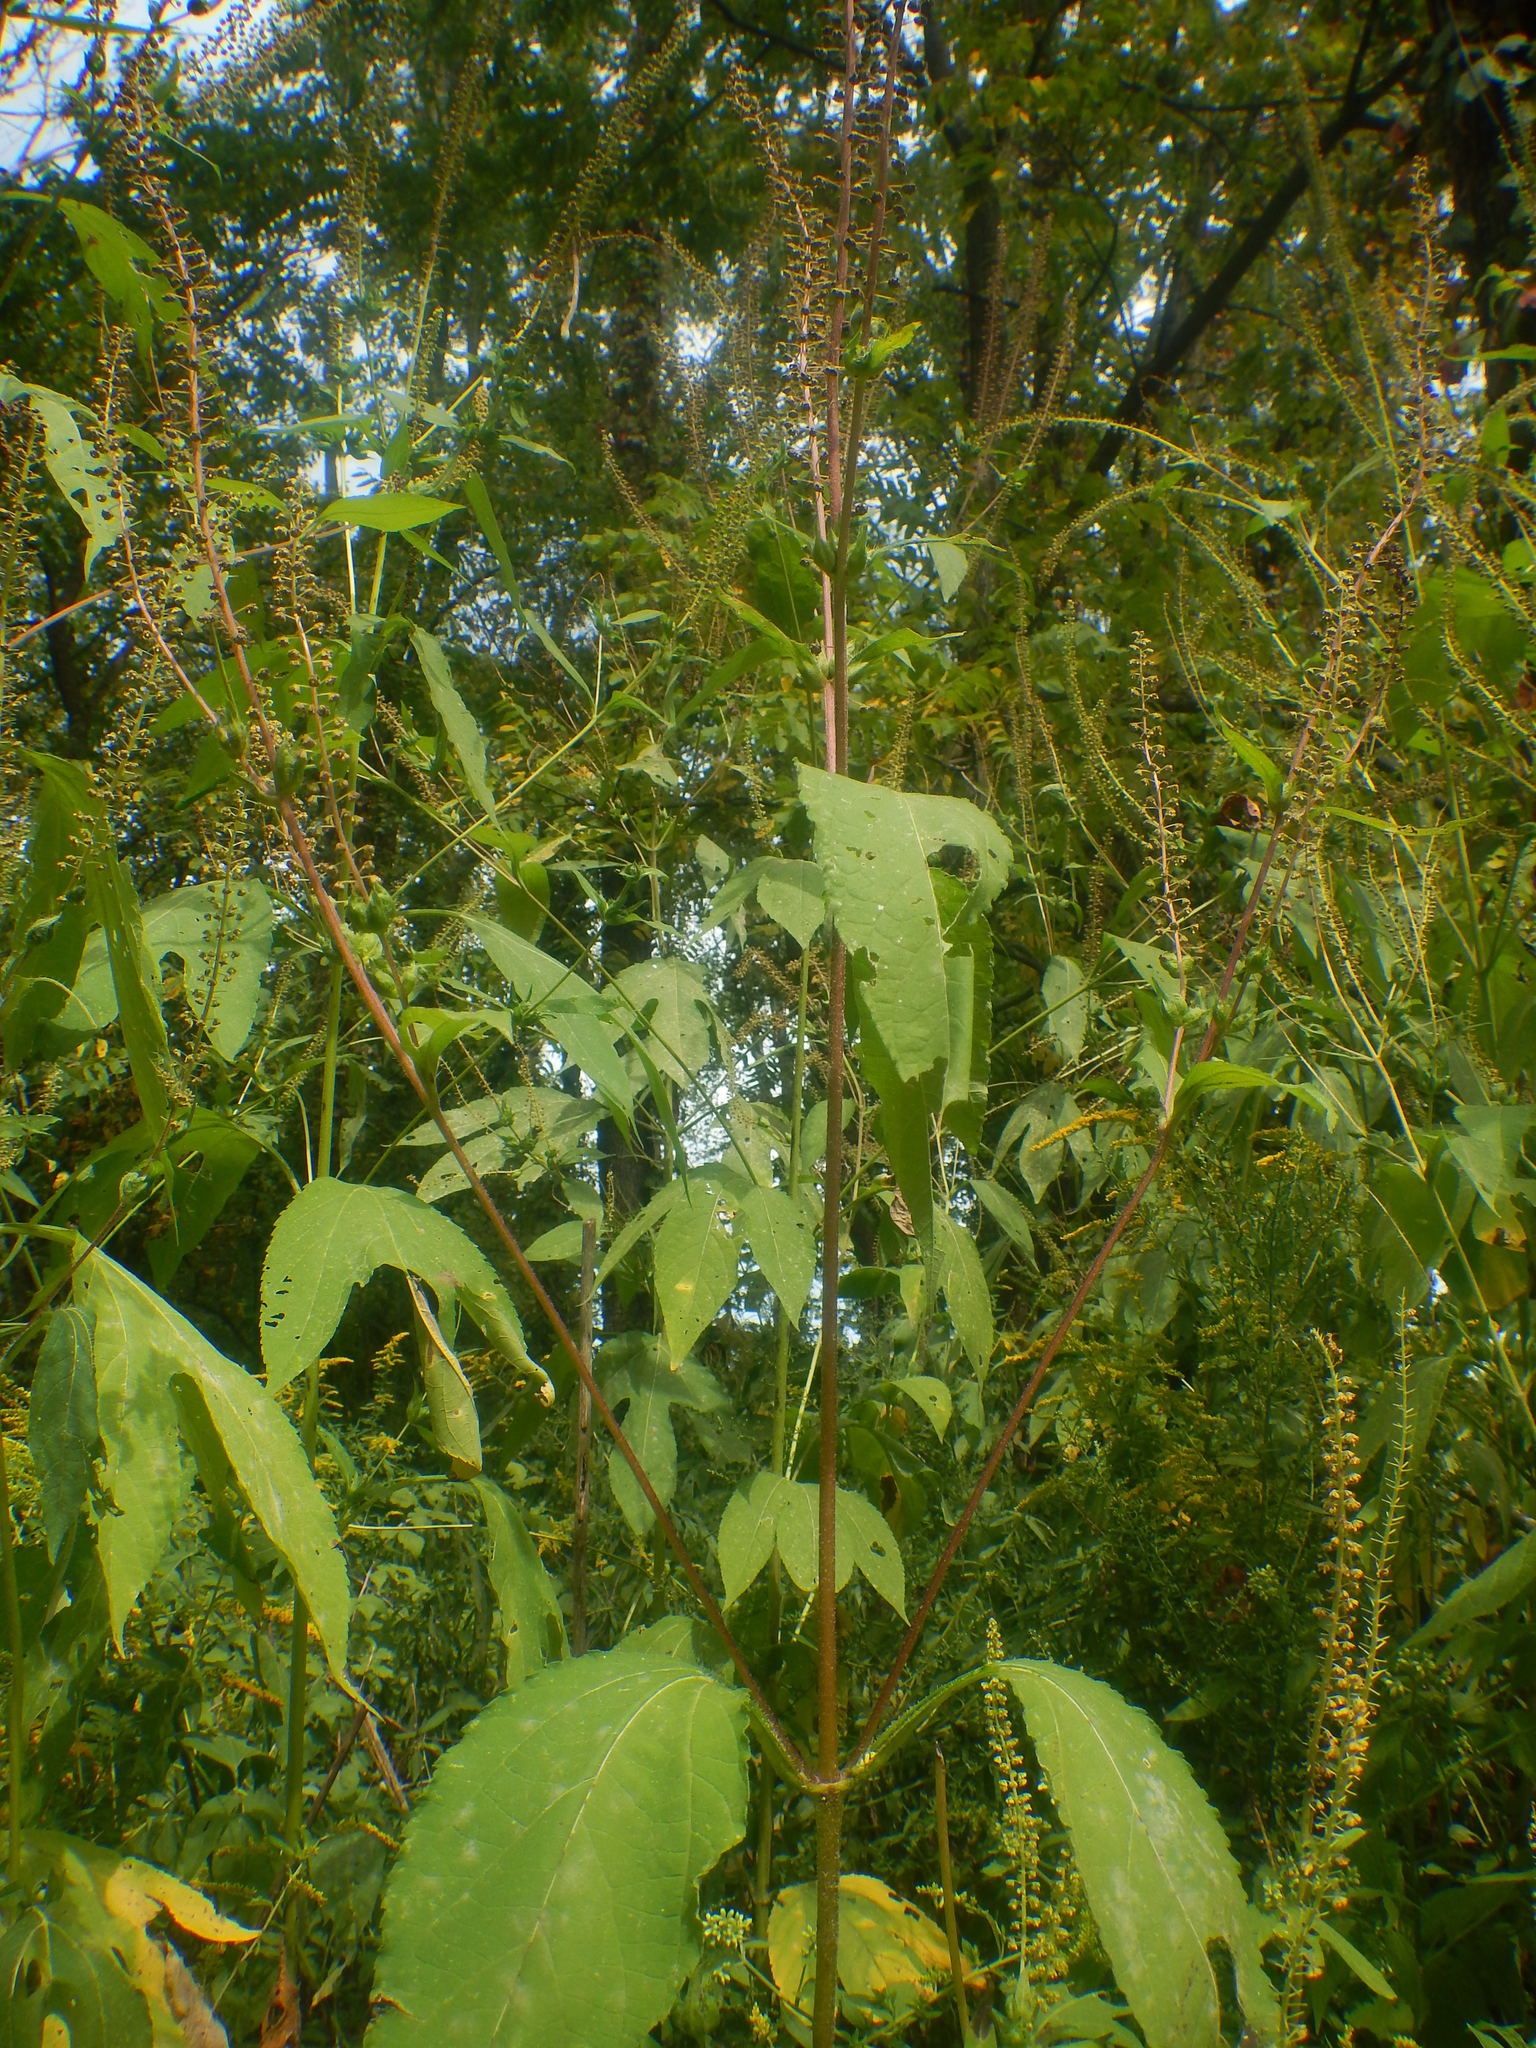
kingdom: Plantae
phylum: Tracheophyta
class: Magnoliopsida
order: Asterales
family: Asteraceae
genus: Ambrosia
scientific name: Ambrosia trifida
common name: Giant ragweed
